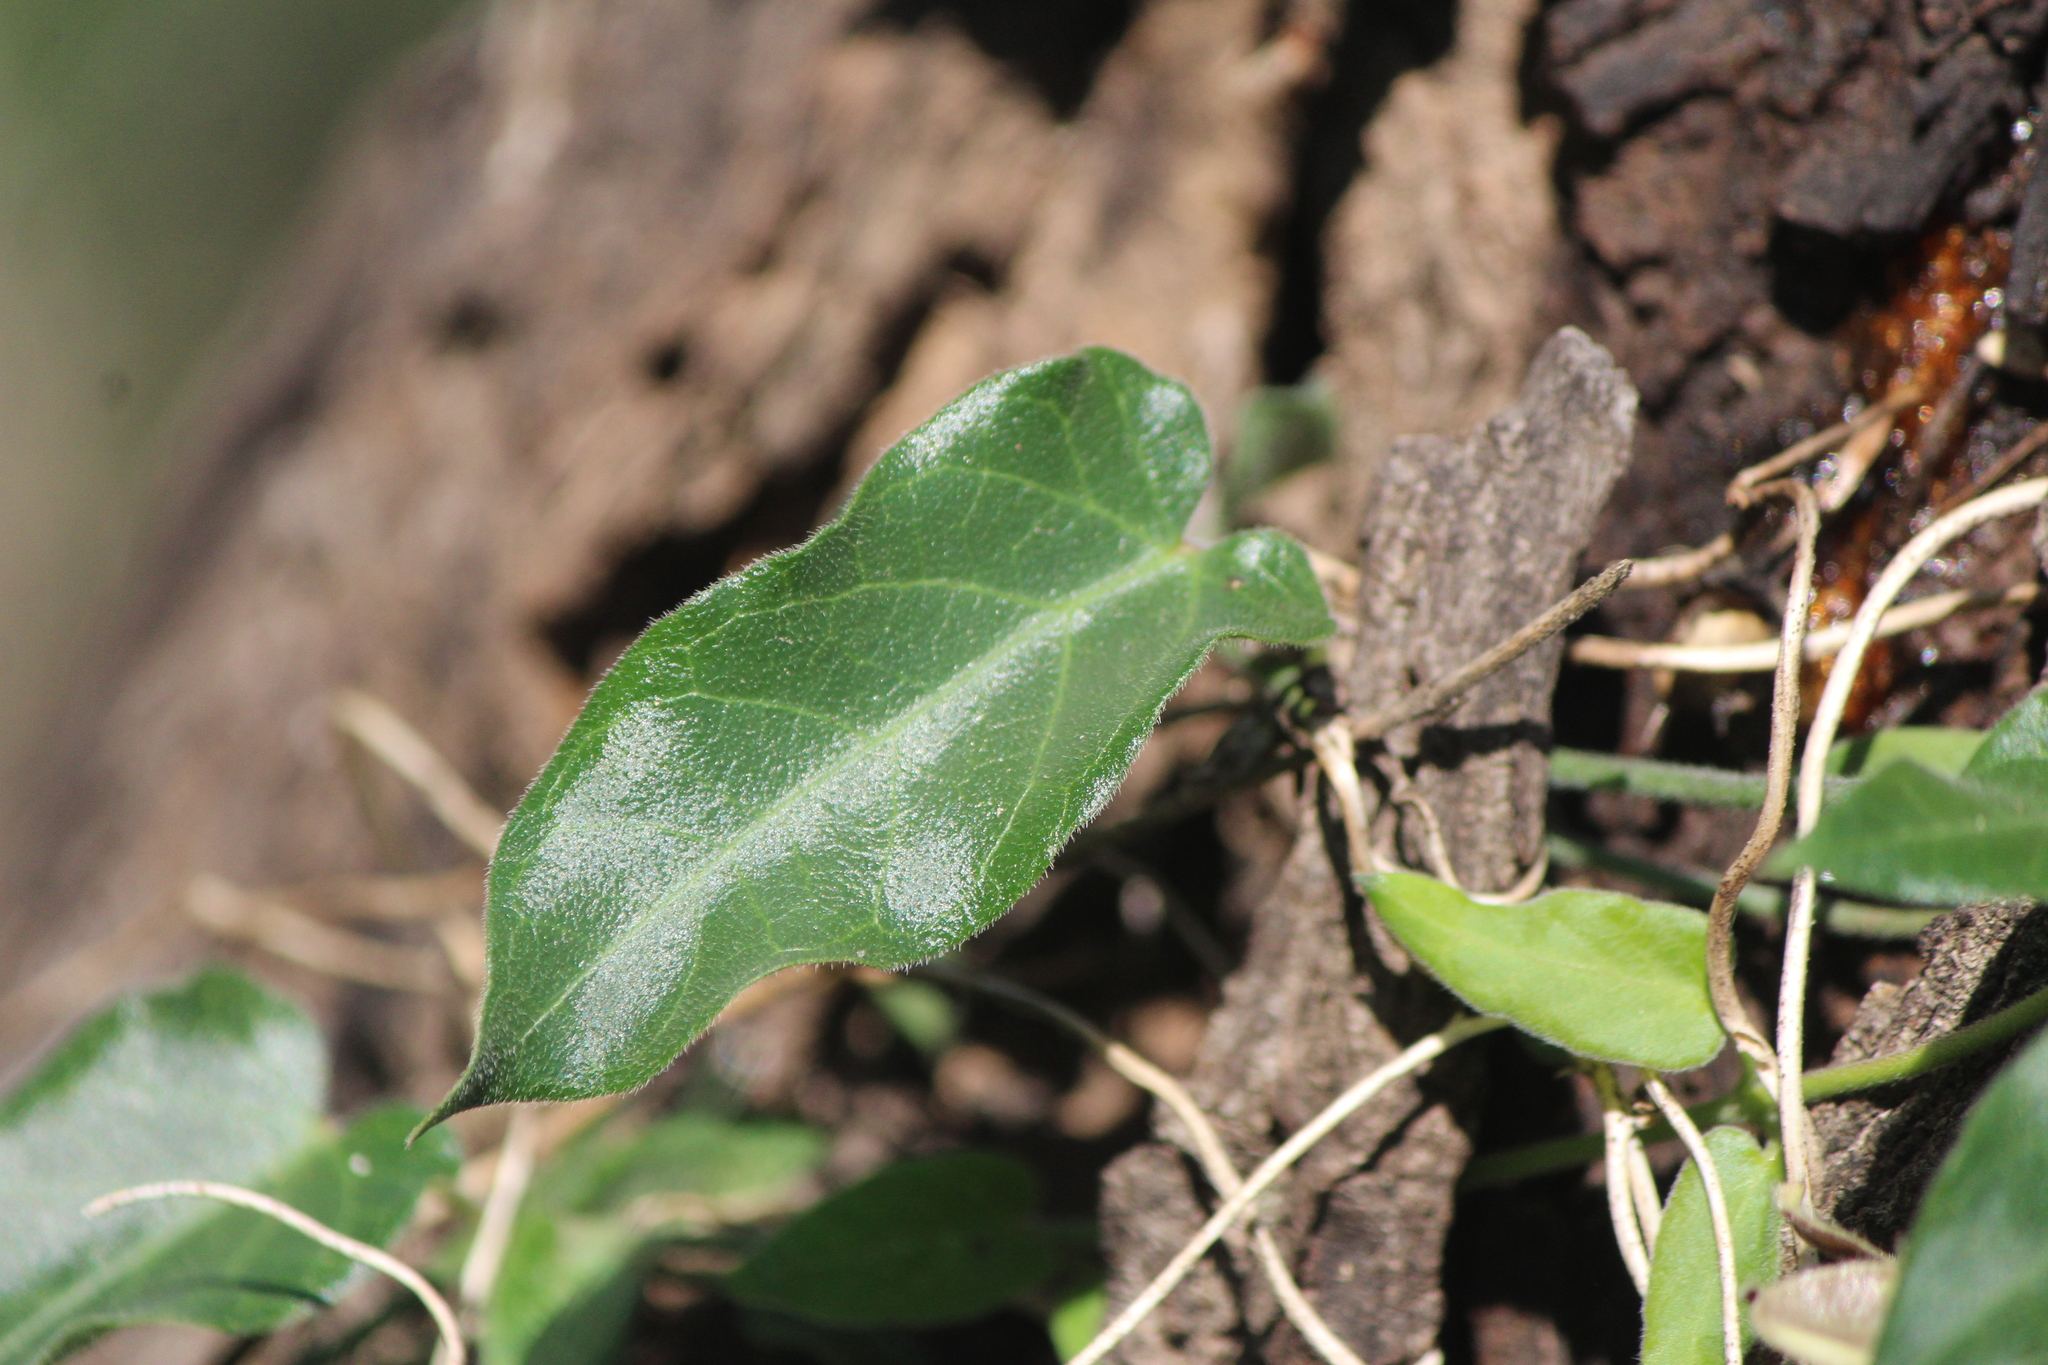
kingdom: Plantae
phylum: Tracheophyta
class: Magnoliopsida
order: Gentianales
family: Apocynaceae
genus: Funastrum
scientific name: Funastrum elegans
